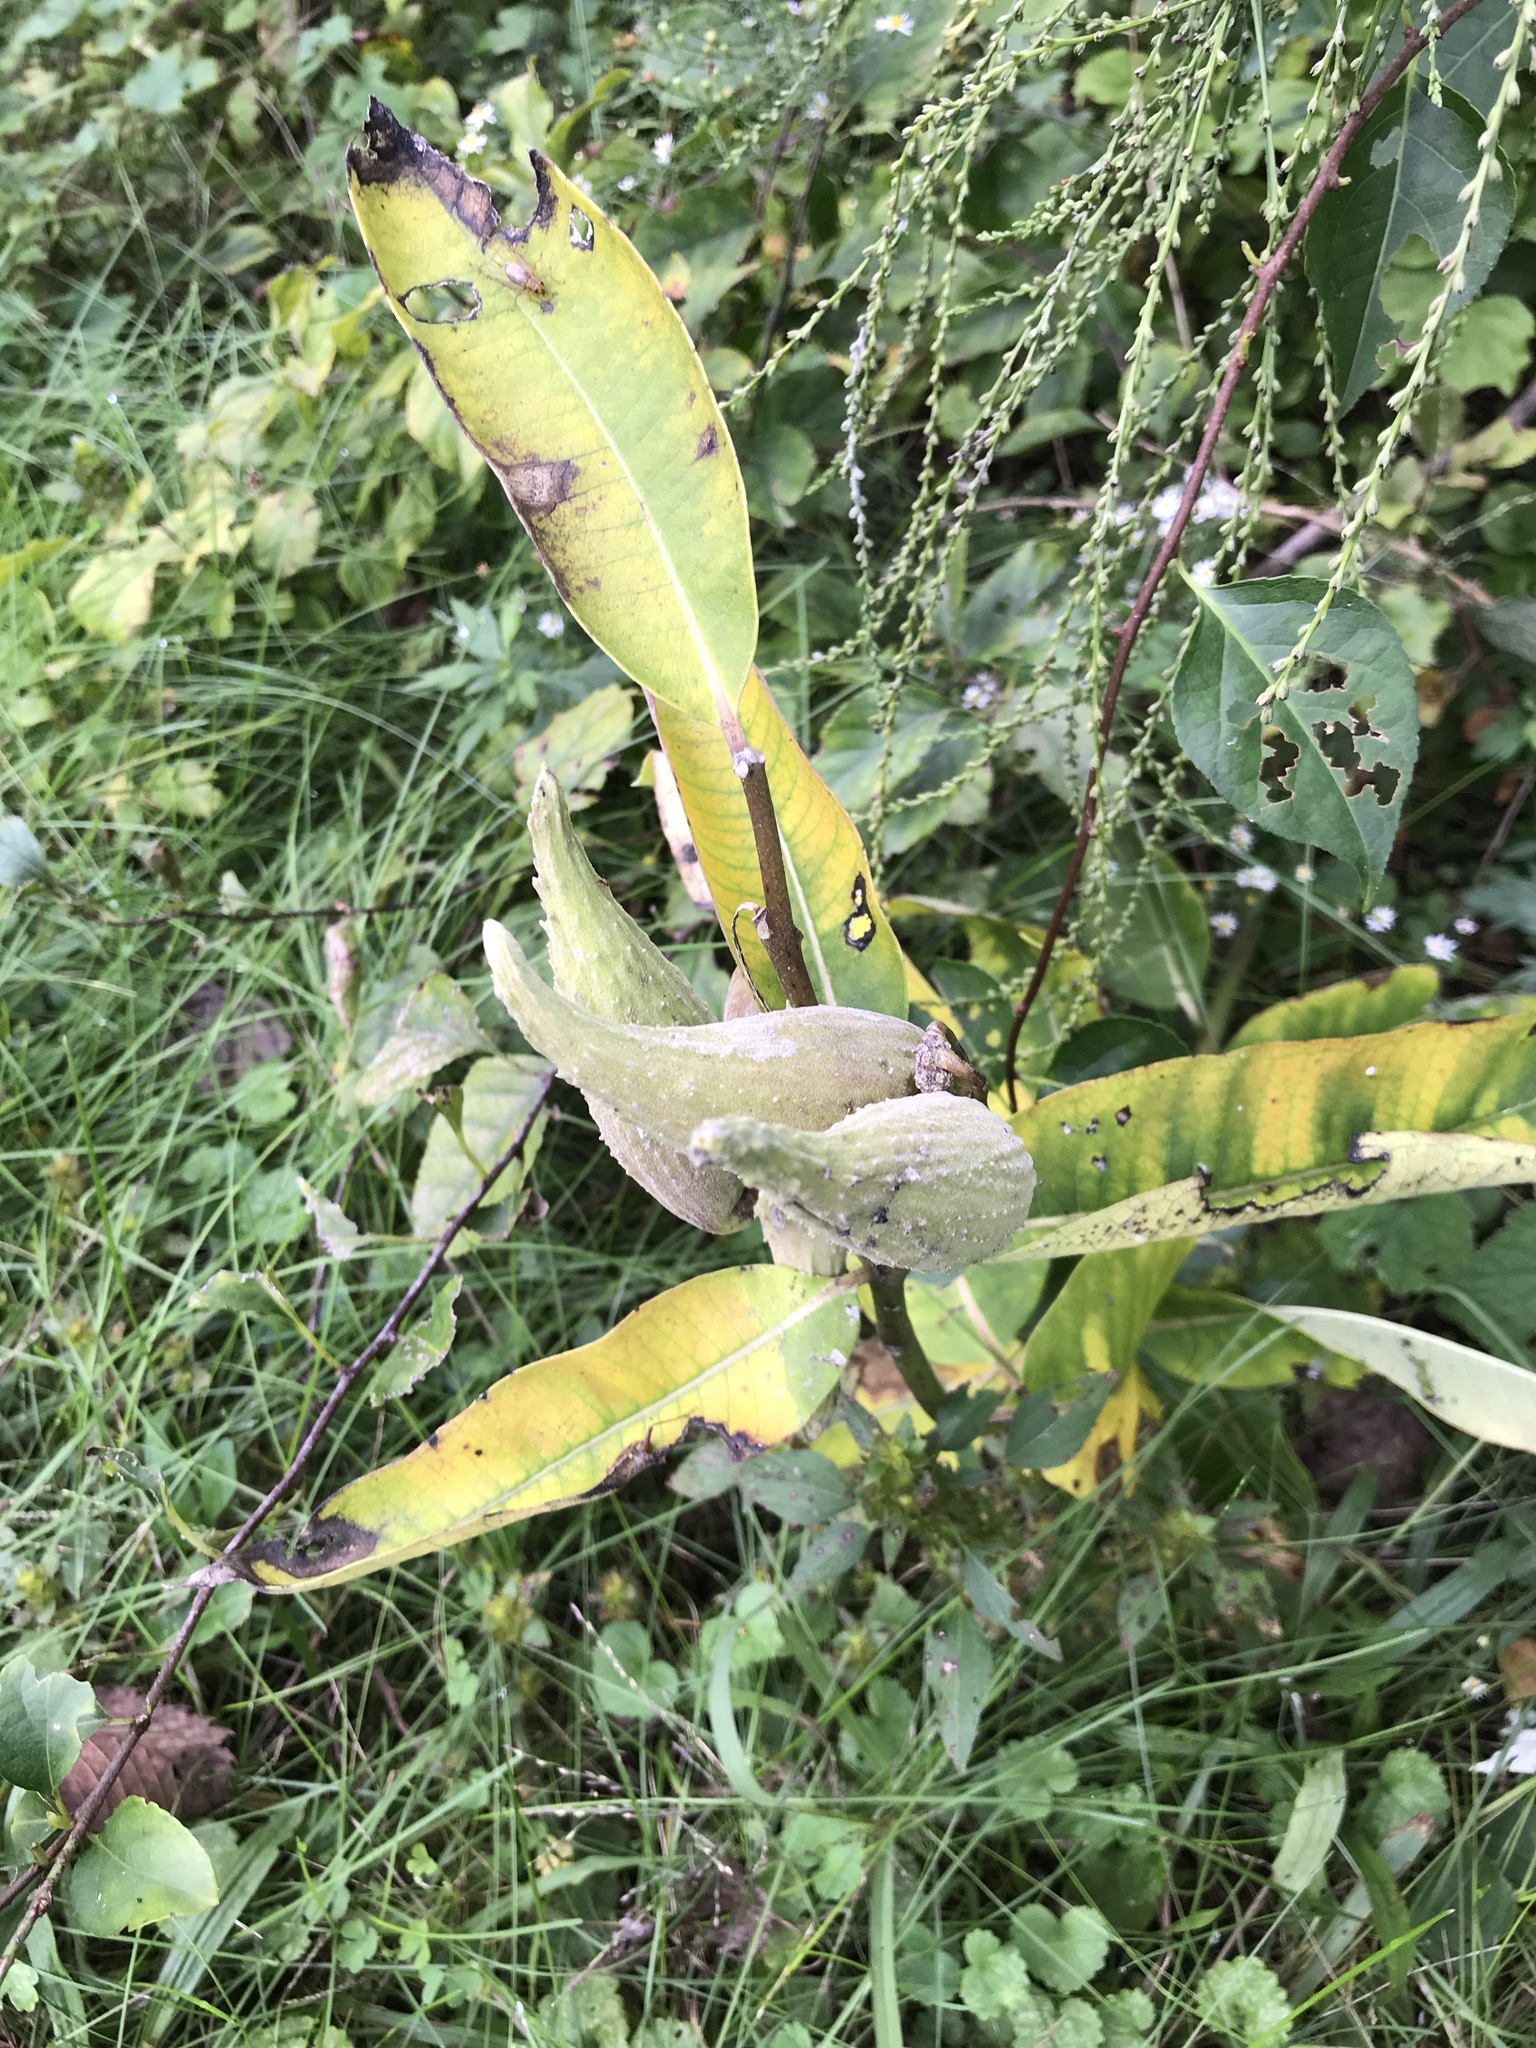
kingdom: Plantae
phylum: Tracheophyta
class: Magnoliopsida
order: Gentianales
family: Apocynaceae
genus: Asclepias
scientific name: Asclepias syriaca
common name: Common milkweed
